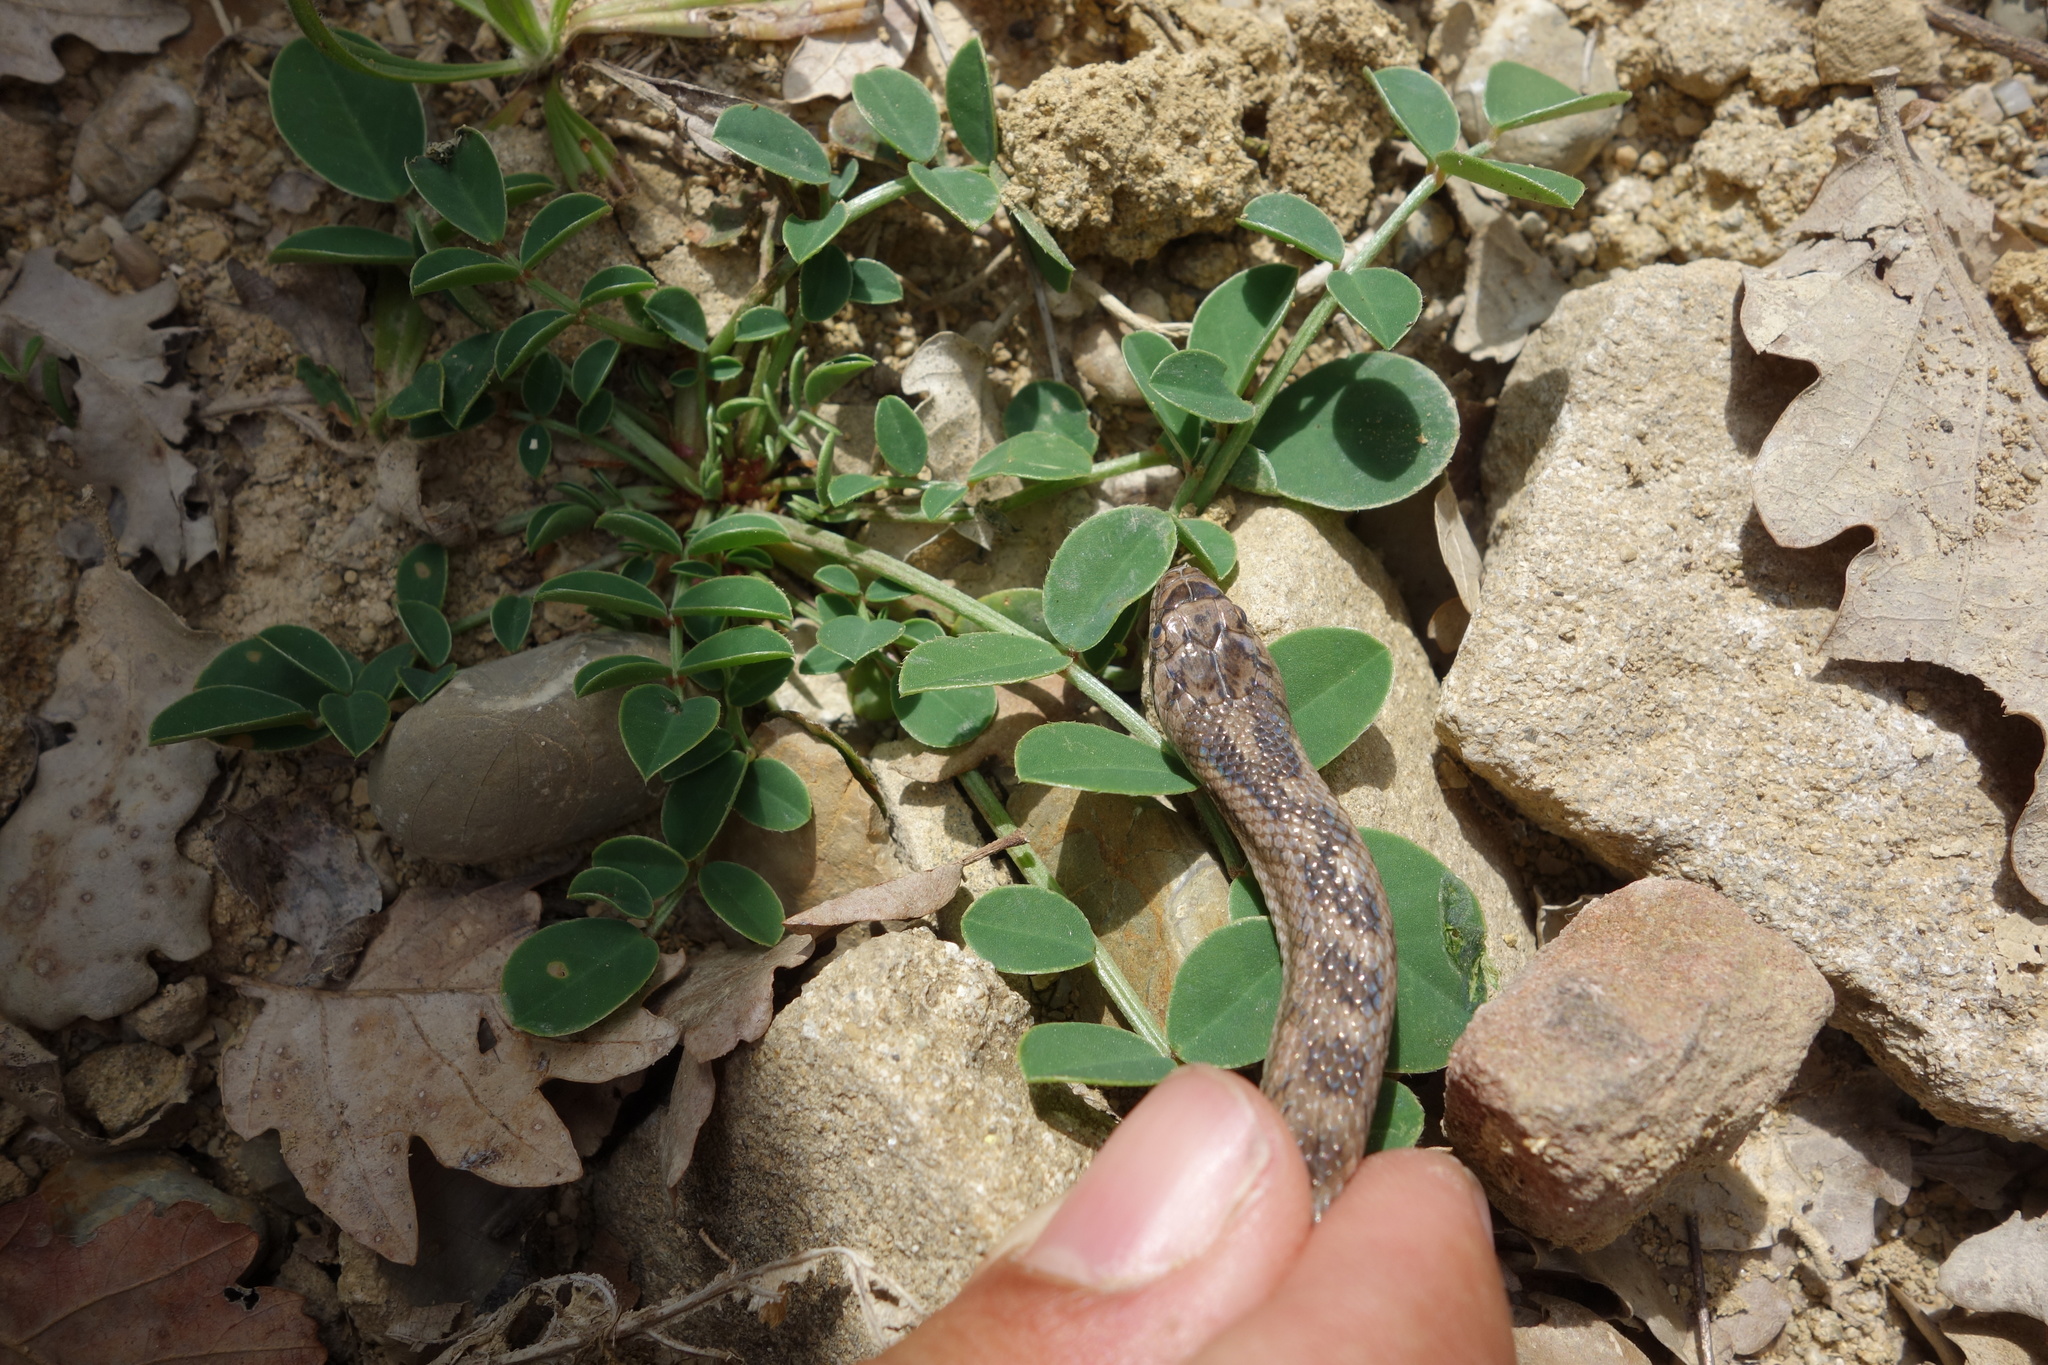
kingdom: Animalia
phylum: Chordata
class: Squamata
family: Colubridae
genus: Coronella
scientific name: Coronella girondica
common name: Southern smooth snake
